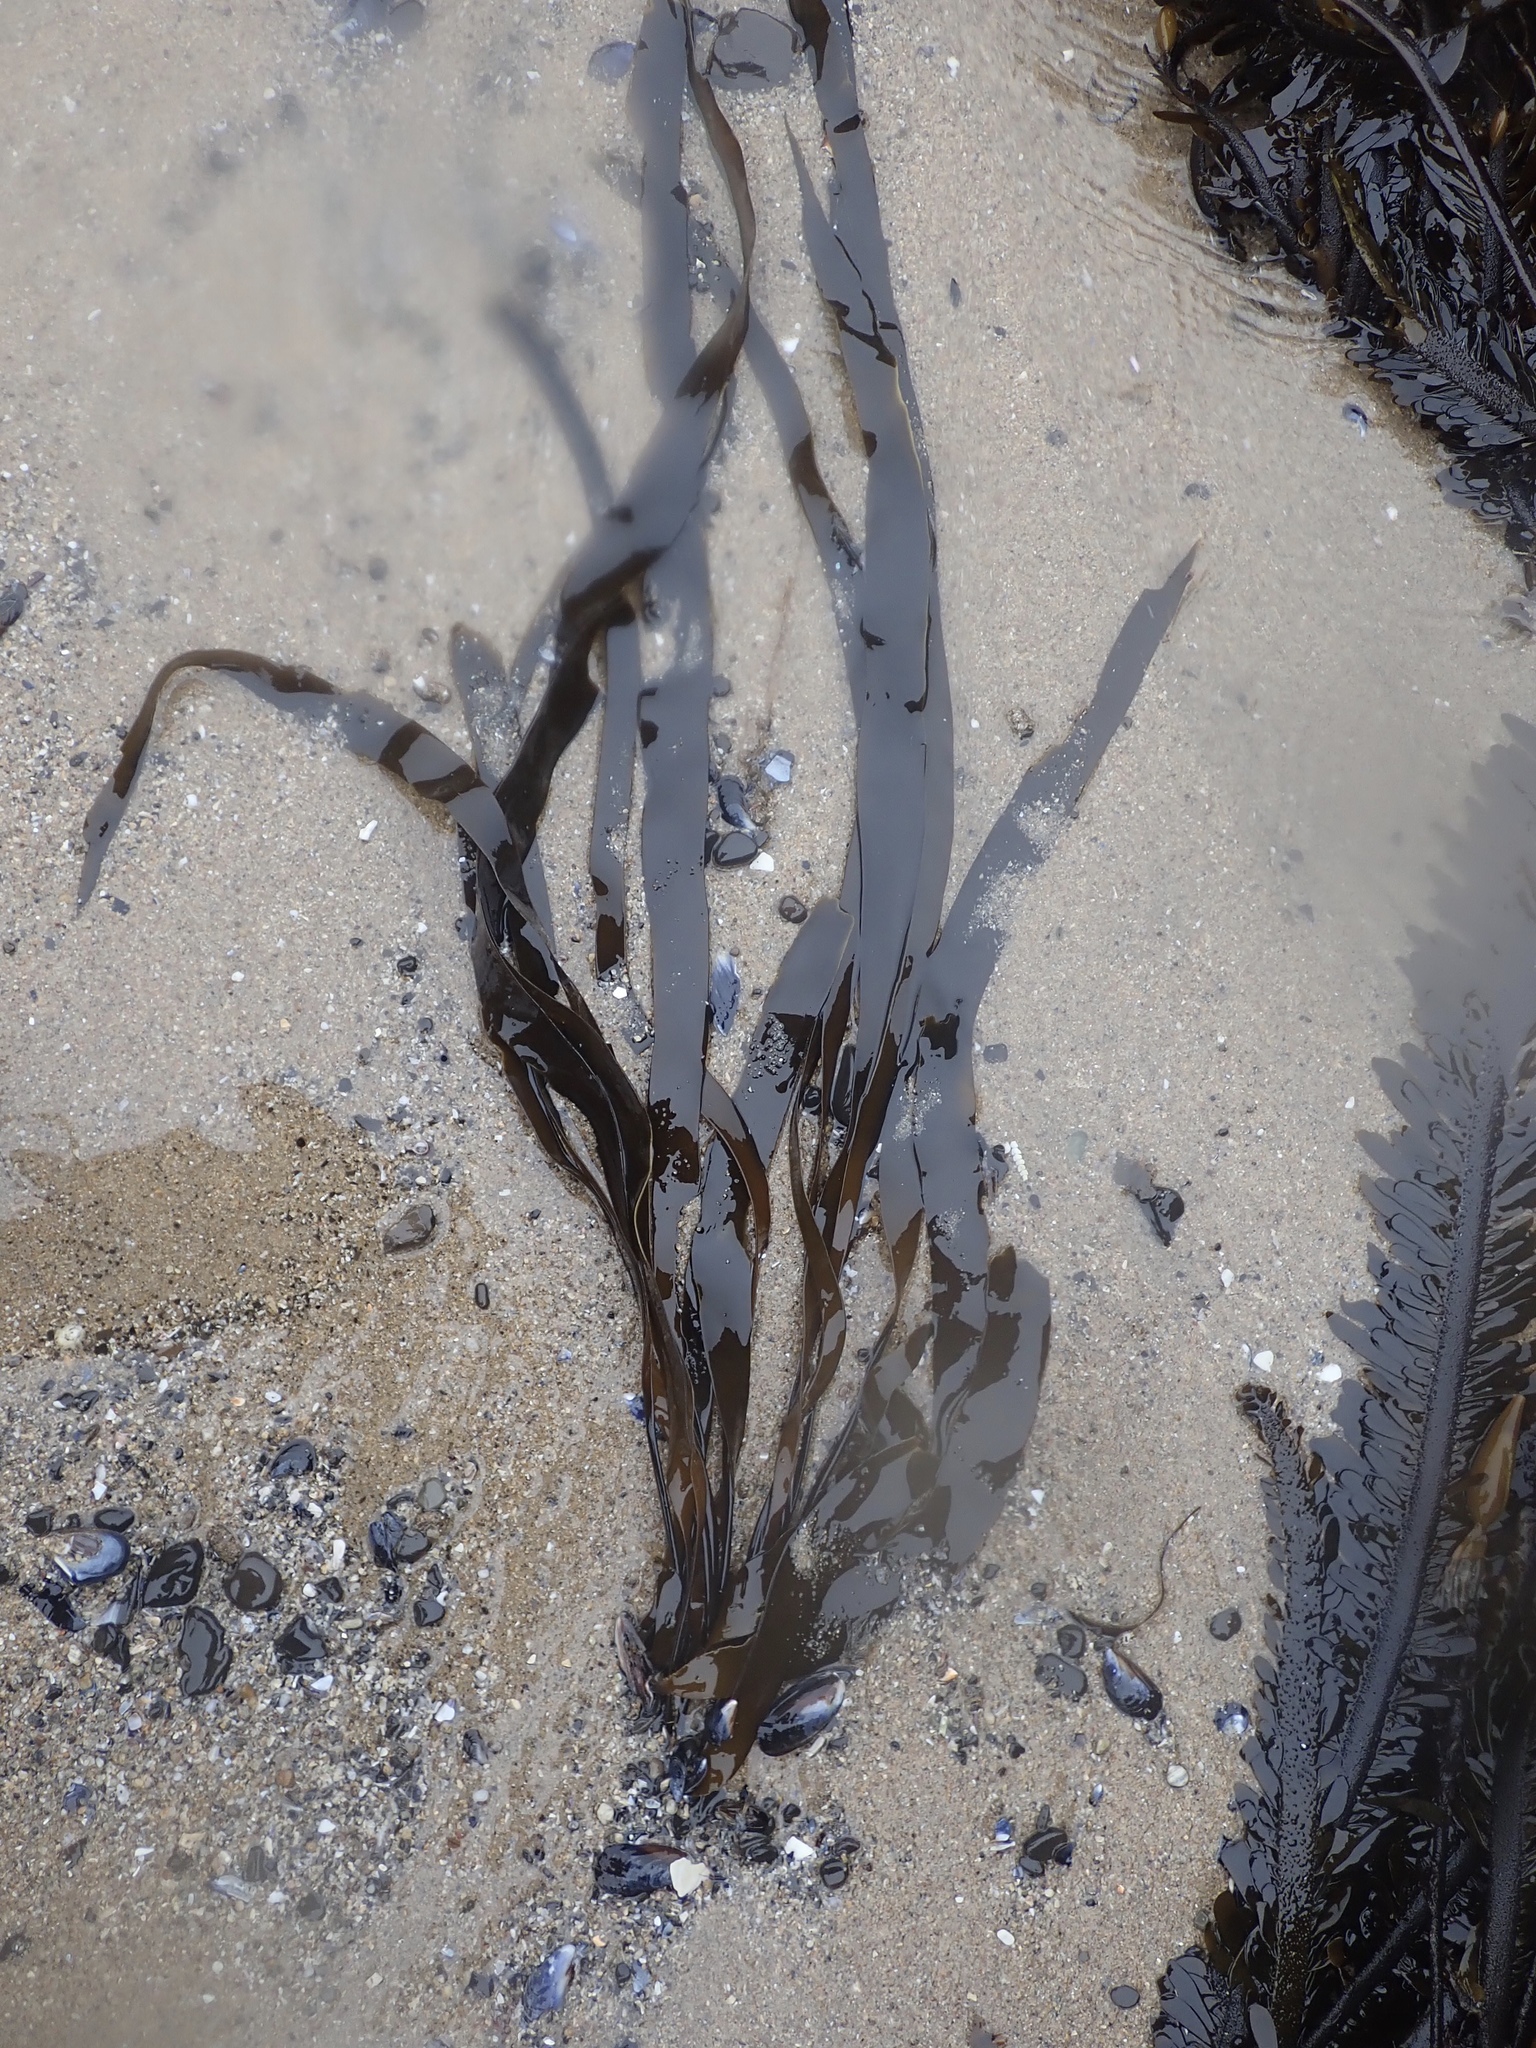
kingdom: Chromista
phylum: Ochrophyta
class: Phaeophyceae
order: Laminariales
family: Laminariaceae
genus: Laminaria
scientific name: Laminaria sinclairii
